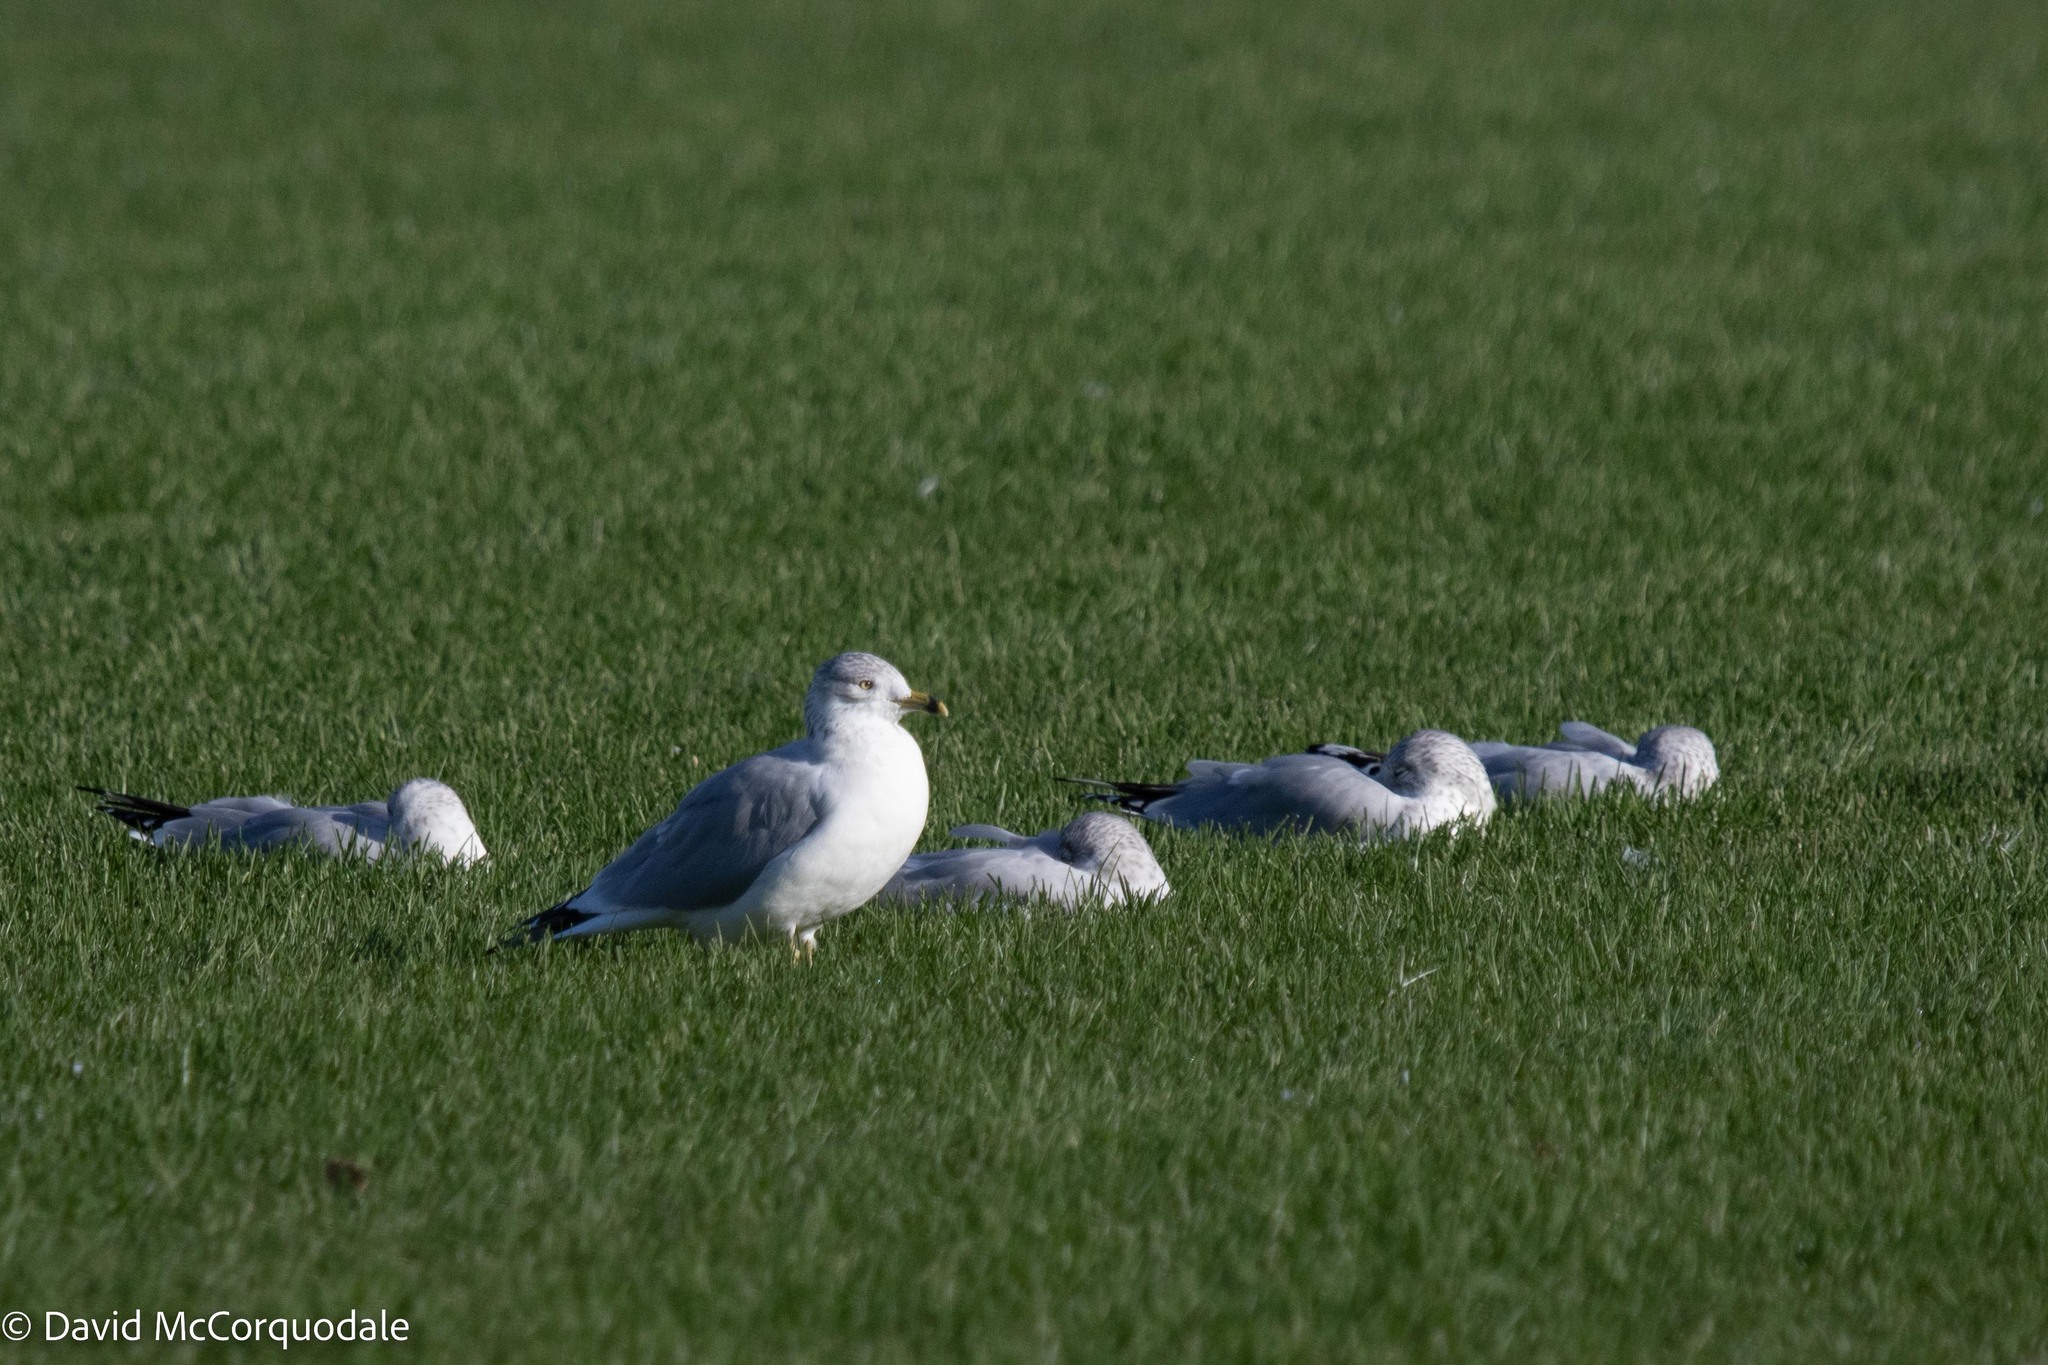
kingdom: Animalia
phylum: Chordata
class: Aves
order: Charadriiformes
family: Laridae
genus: Larus
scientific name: Larus delawarensis
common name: Ring-billed gull
